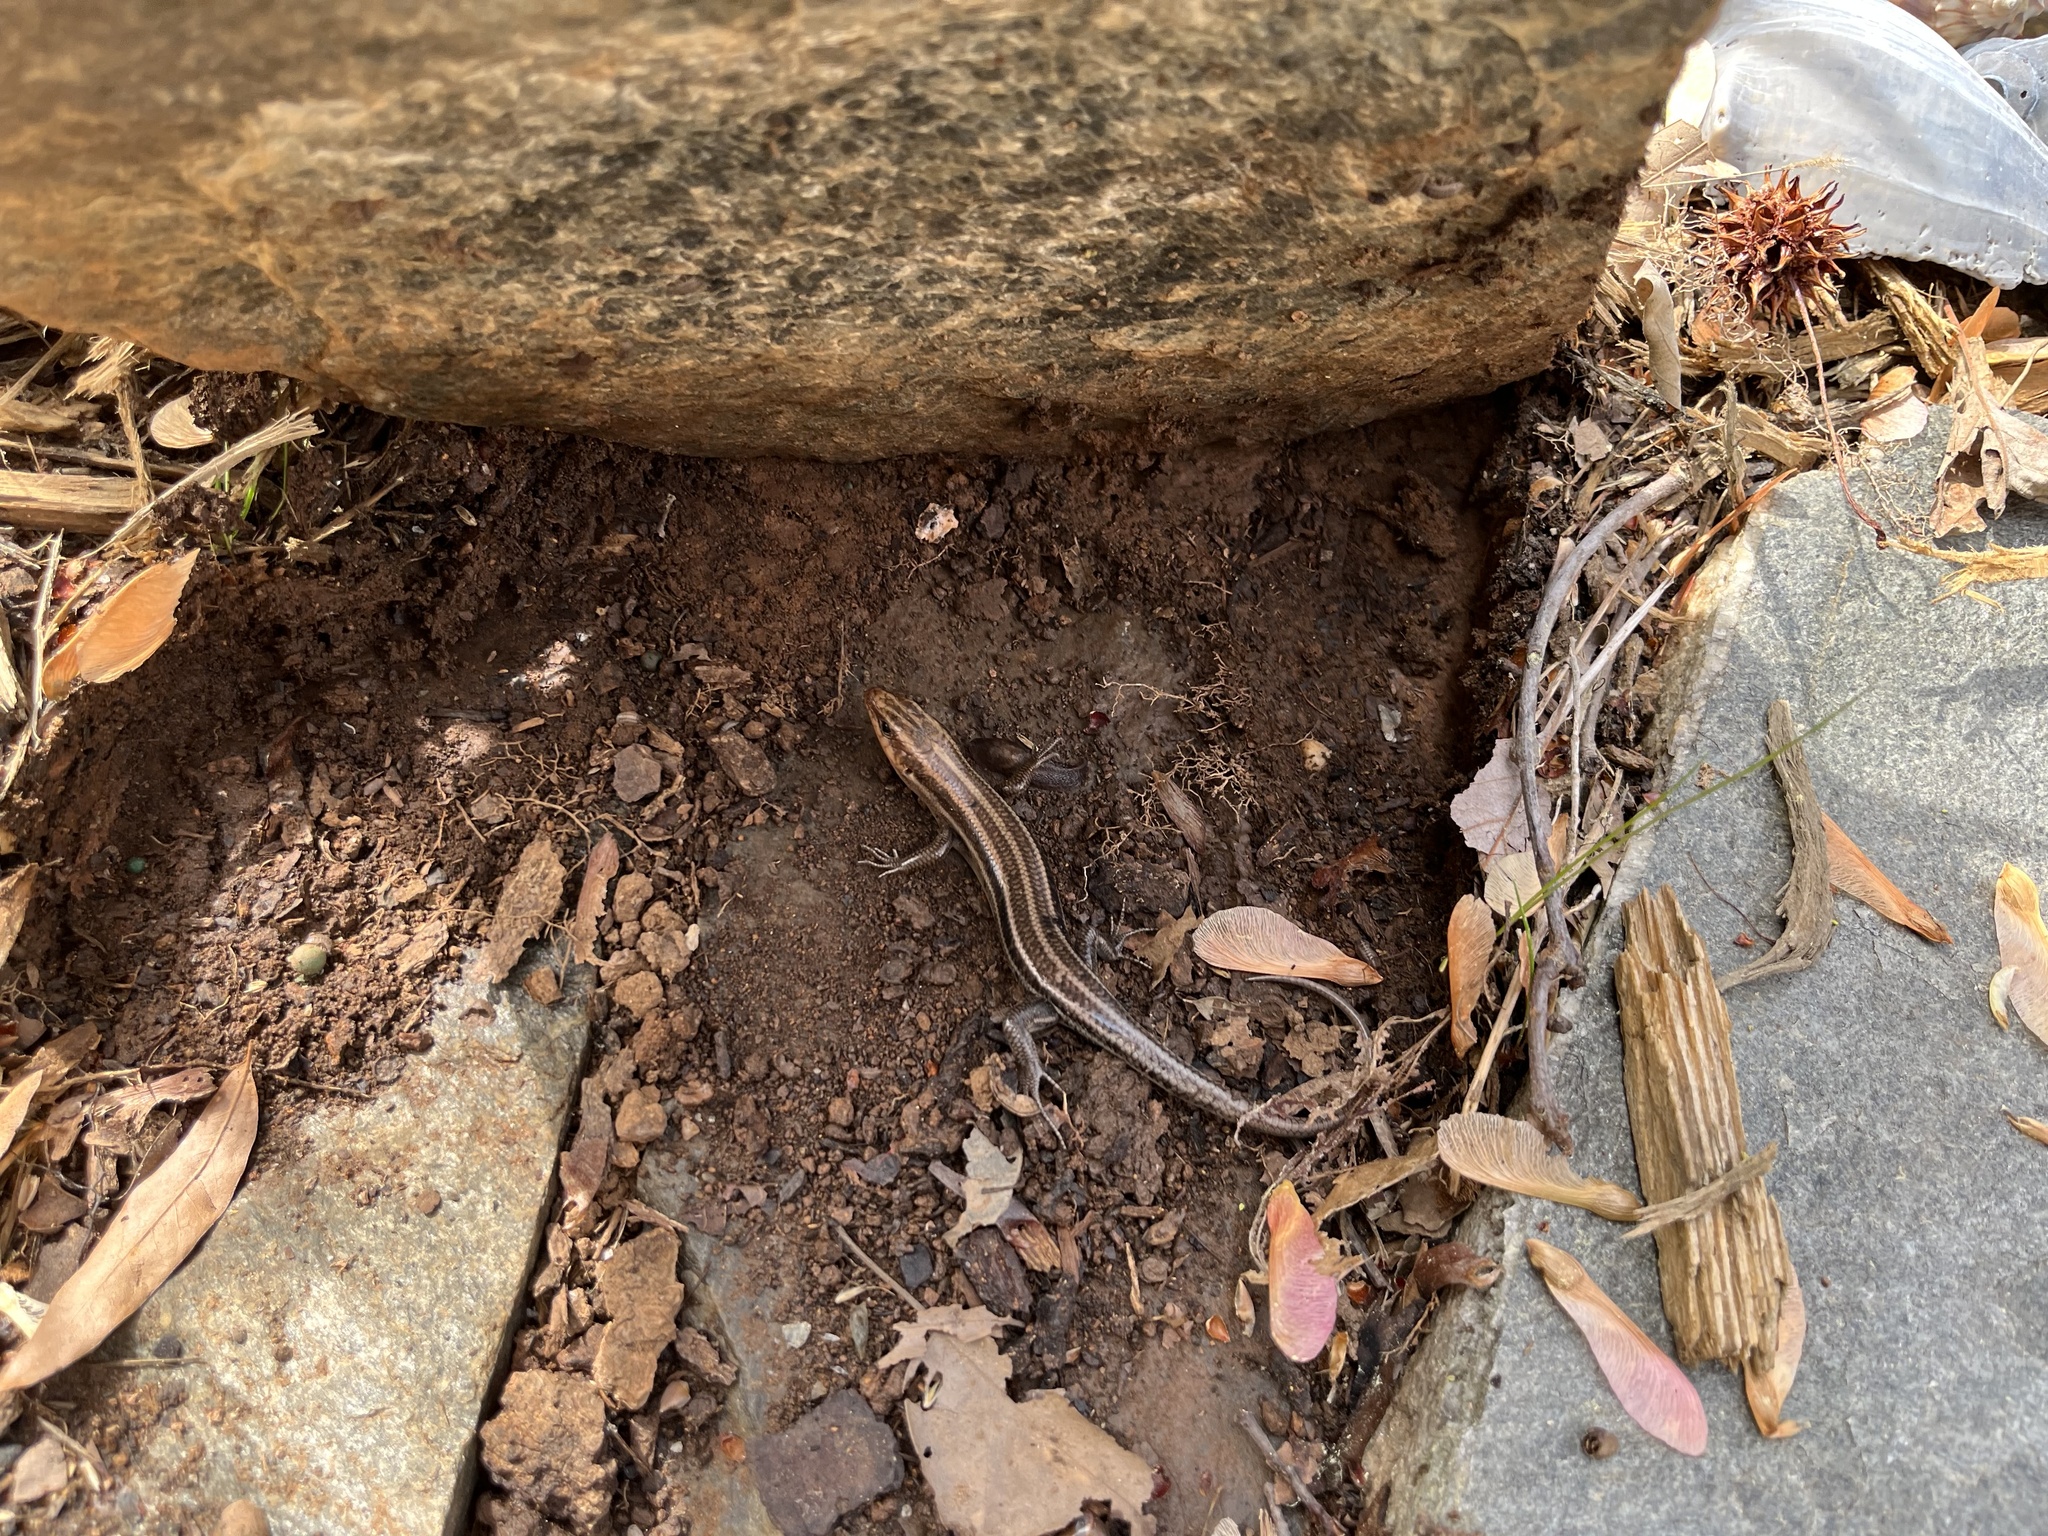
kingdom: Animalia
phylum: Chordata
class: Squamata
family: Scincidae
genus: Plestiodon
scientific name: Plestiodon fasciatus
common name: Five-lined skink
